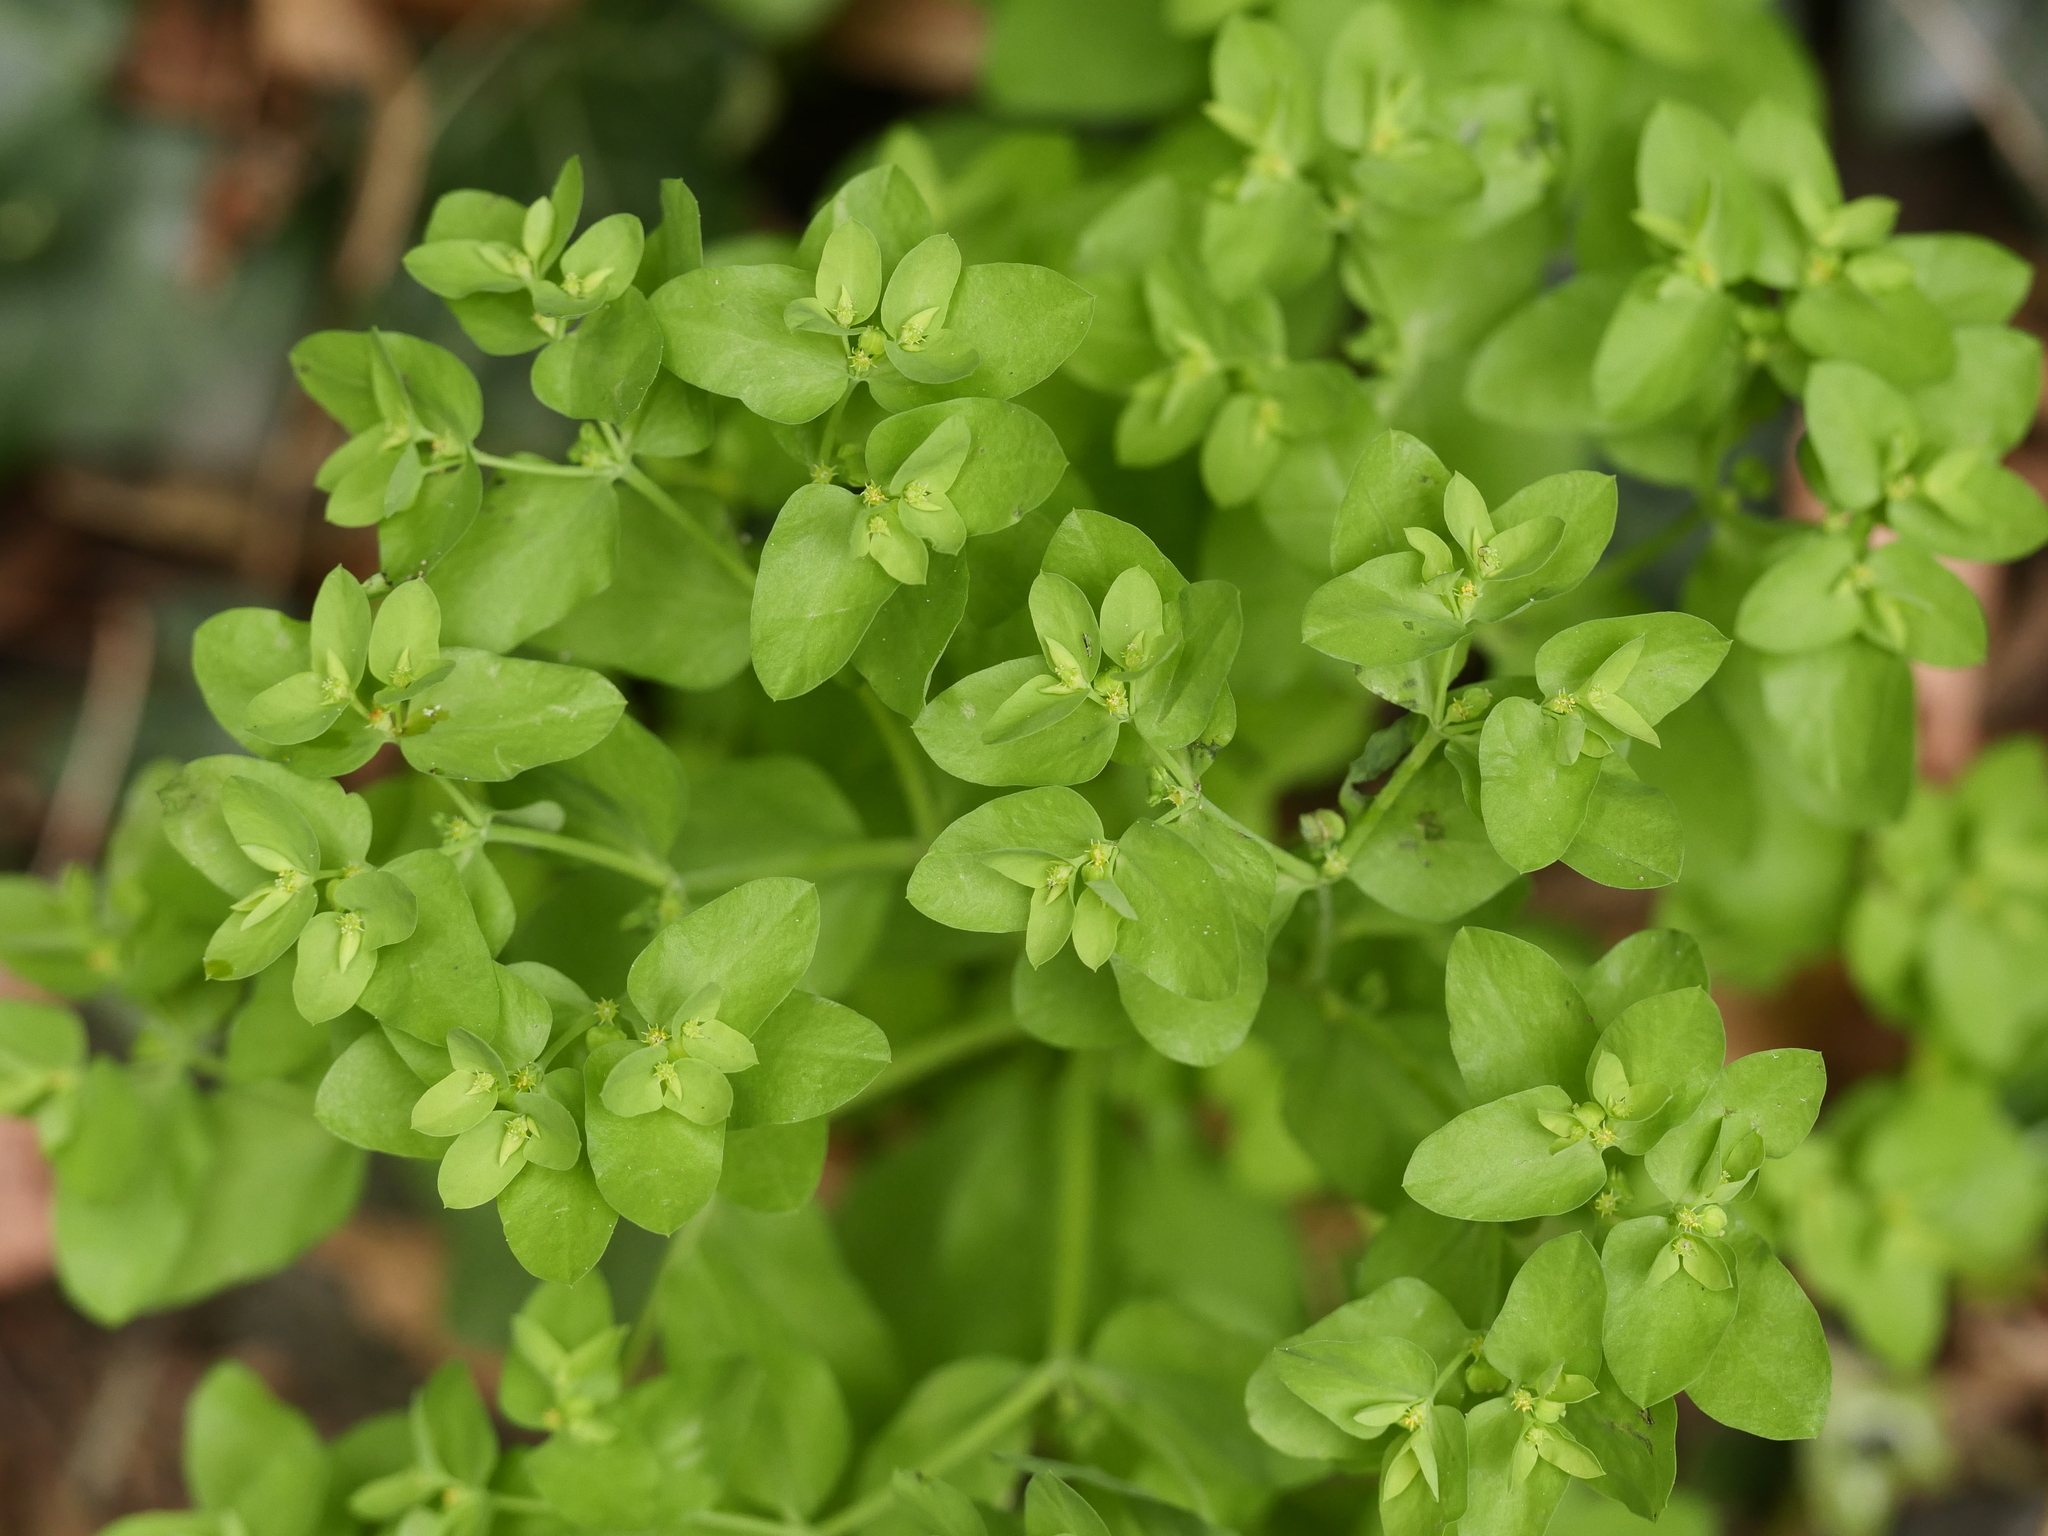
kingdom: Plantae
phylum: Tracheophyta
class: Magnoliopsida
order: Malpighiales
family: Euphorbiaceae
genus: Euphorbia
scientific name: Euphorbia peplus
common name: Petty spurge
